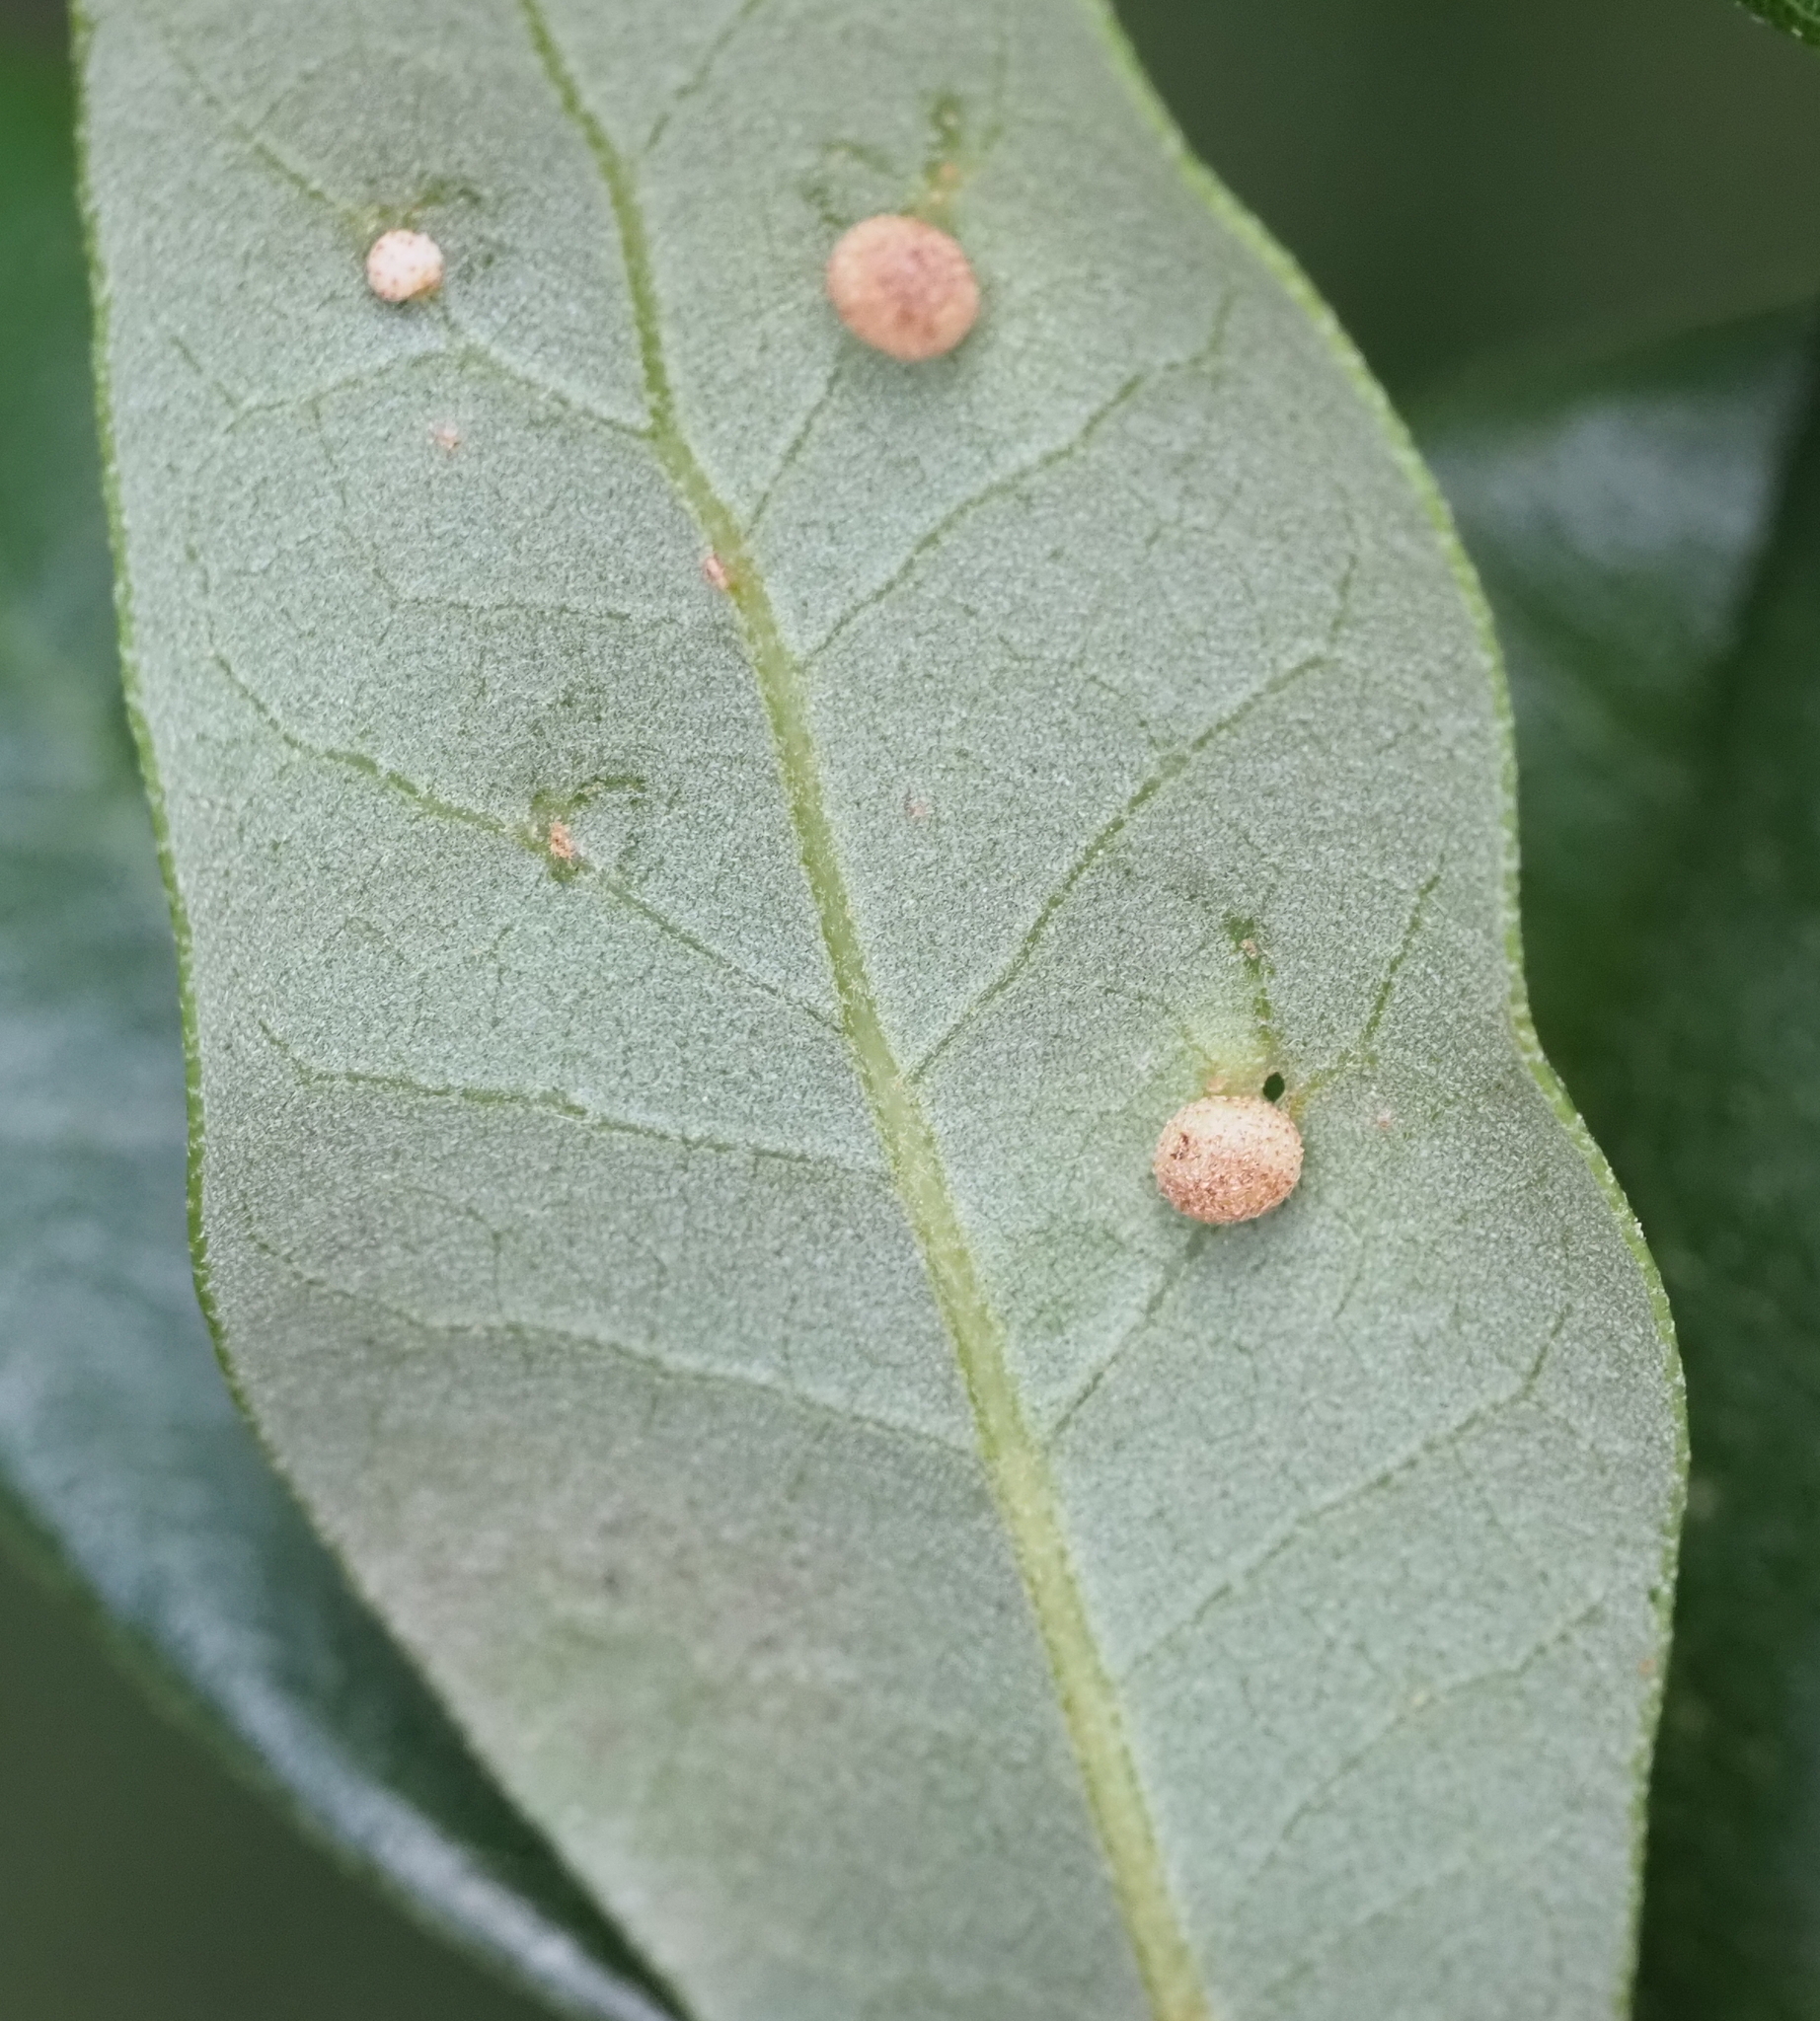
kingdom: Animalia
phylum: Arthropoda
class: Insecta
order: Hymenoptera
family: Cynipidae
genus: Belonocnema
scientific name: Belonocnema kinseyi
